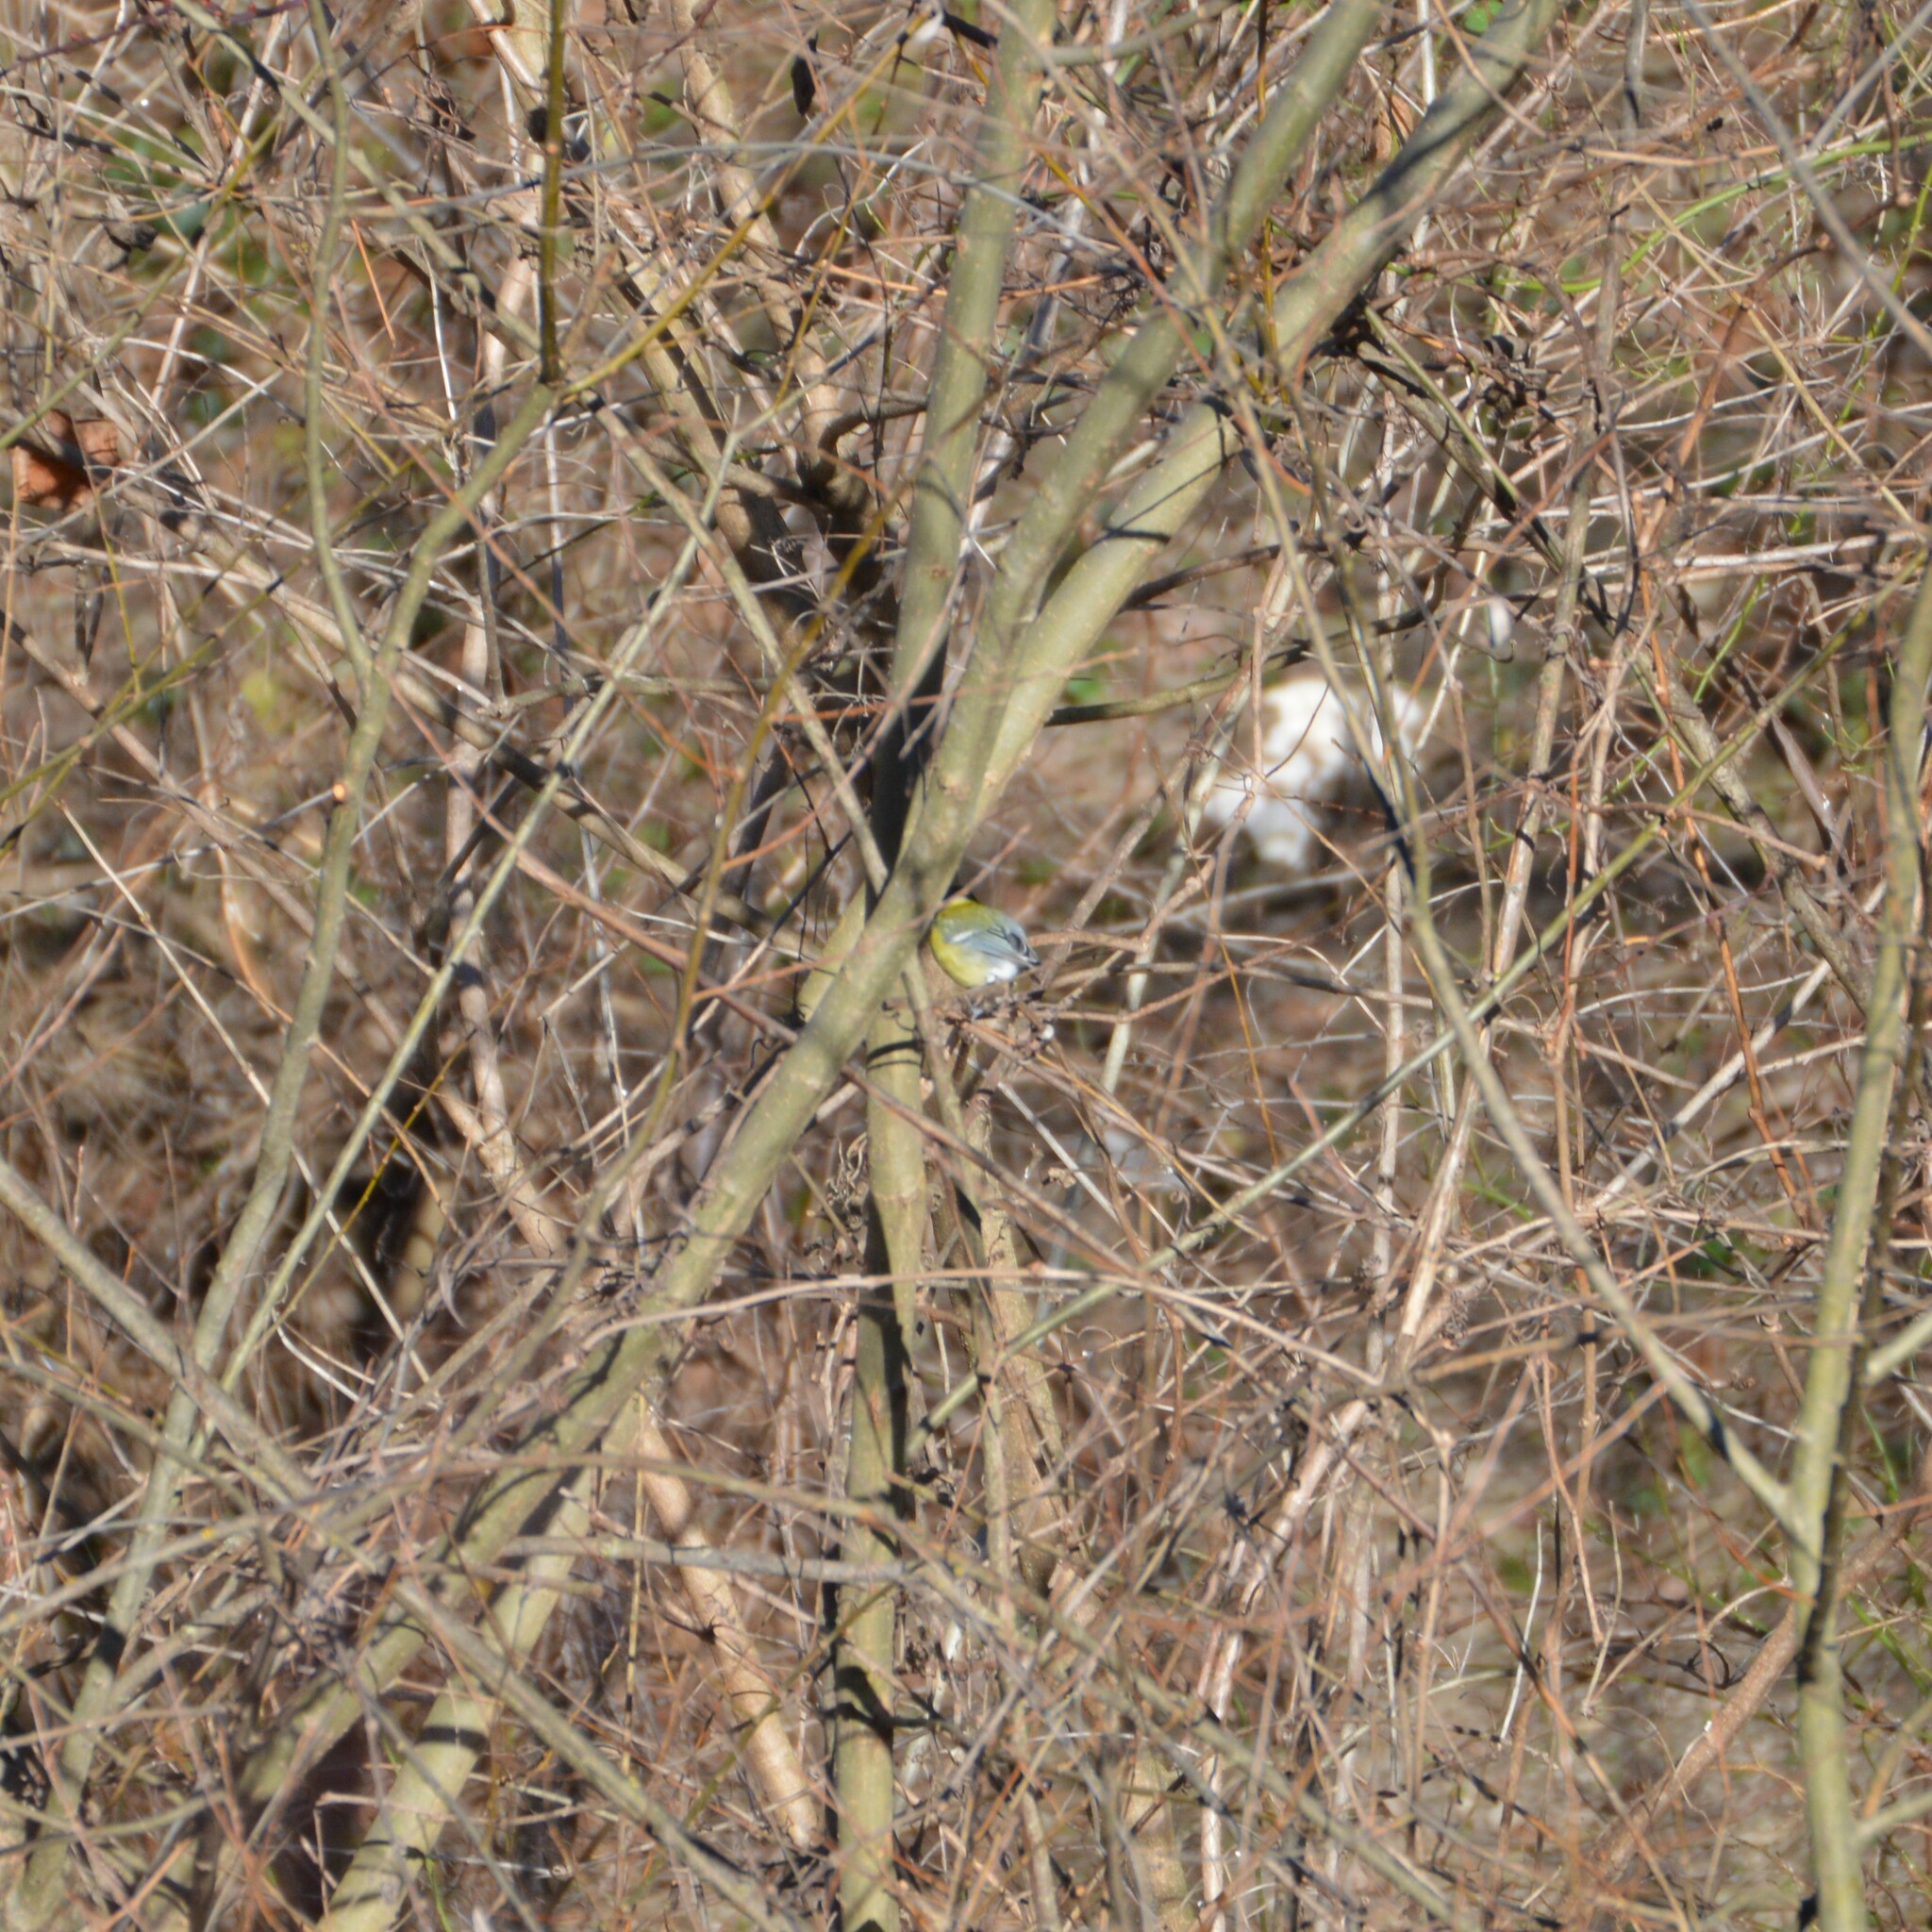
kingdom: Animalia
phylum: Chordata
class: Aves
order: Passeriformes
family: Paridae
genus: Parus
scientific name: Parus major
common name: Great tit
